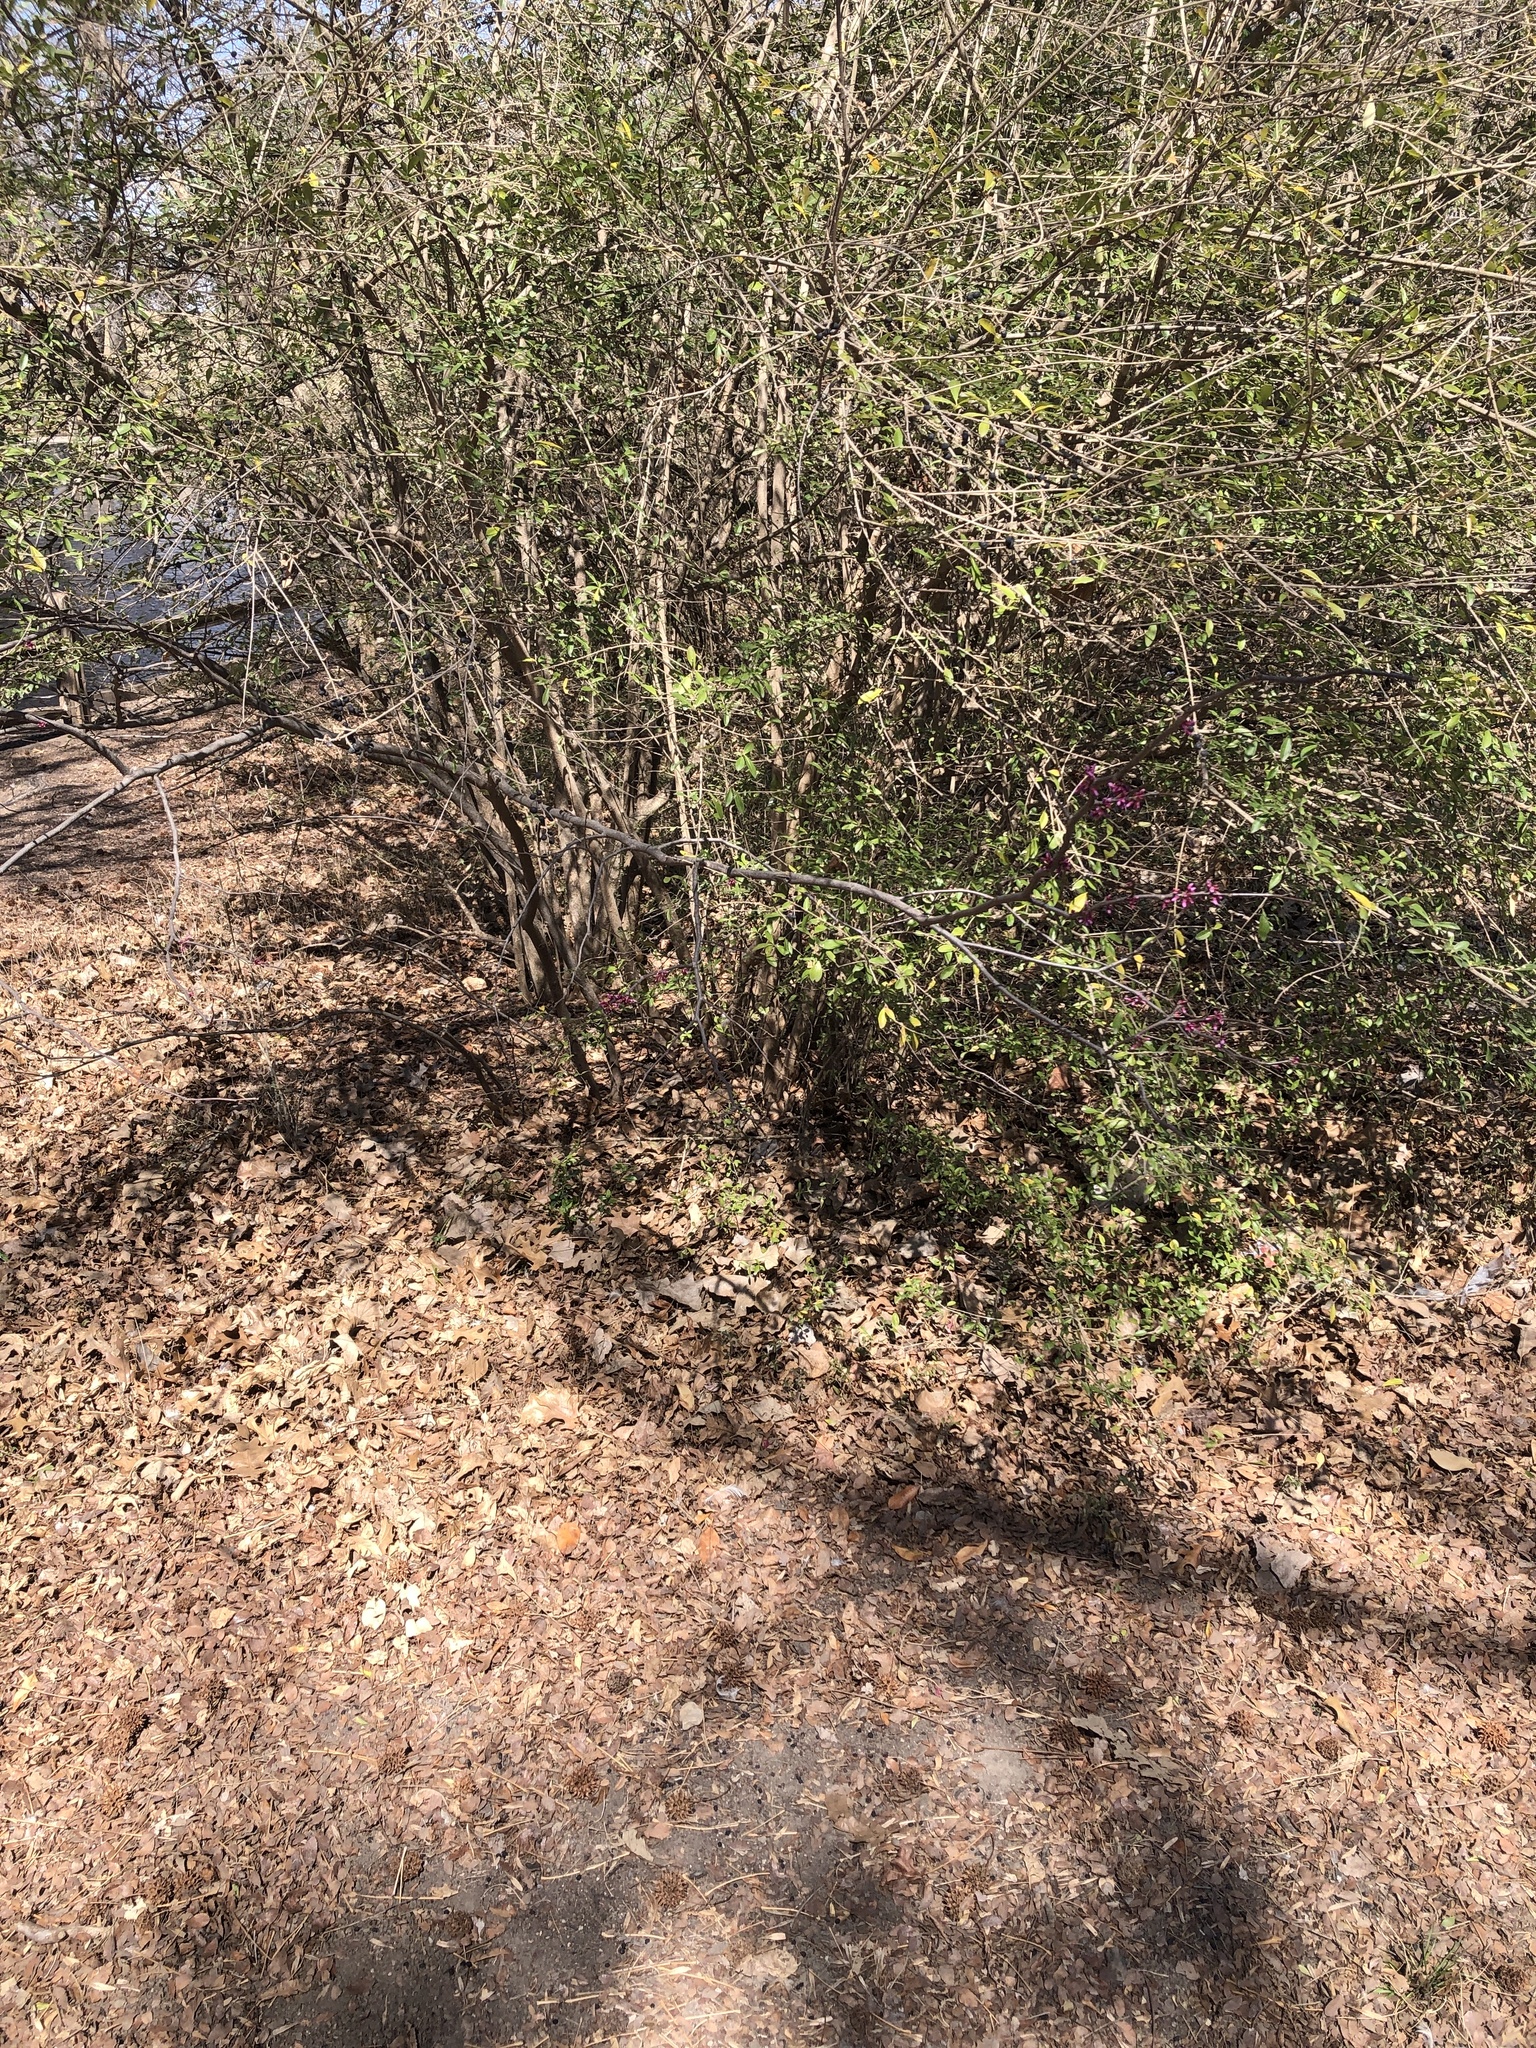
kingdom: Plantae
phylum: Tracheophyta
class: Magnoliopsida
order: Fabales
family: Fabaceae
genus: Cercis
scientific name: Cercis canadensis
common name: Eastern redbud
